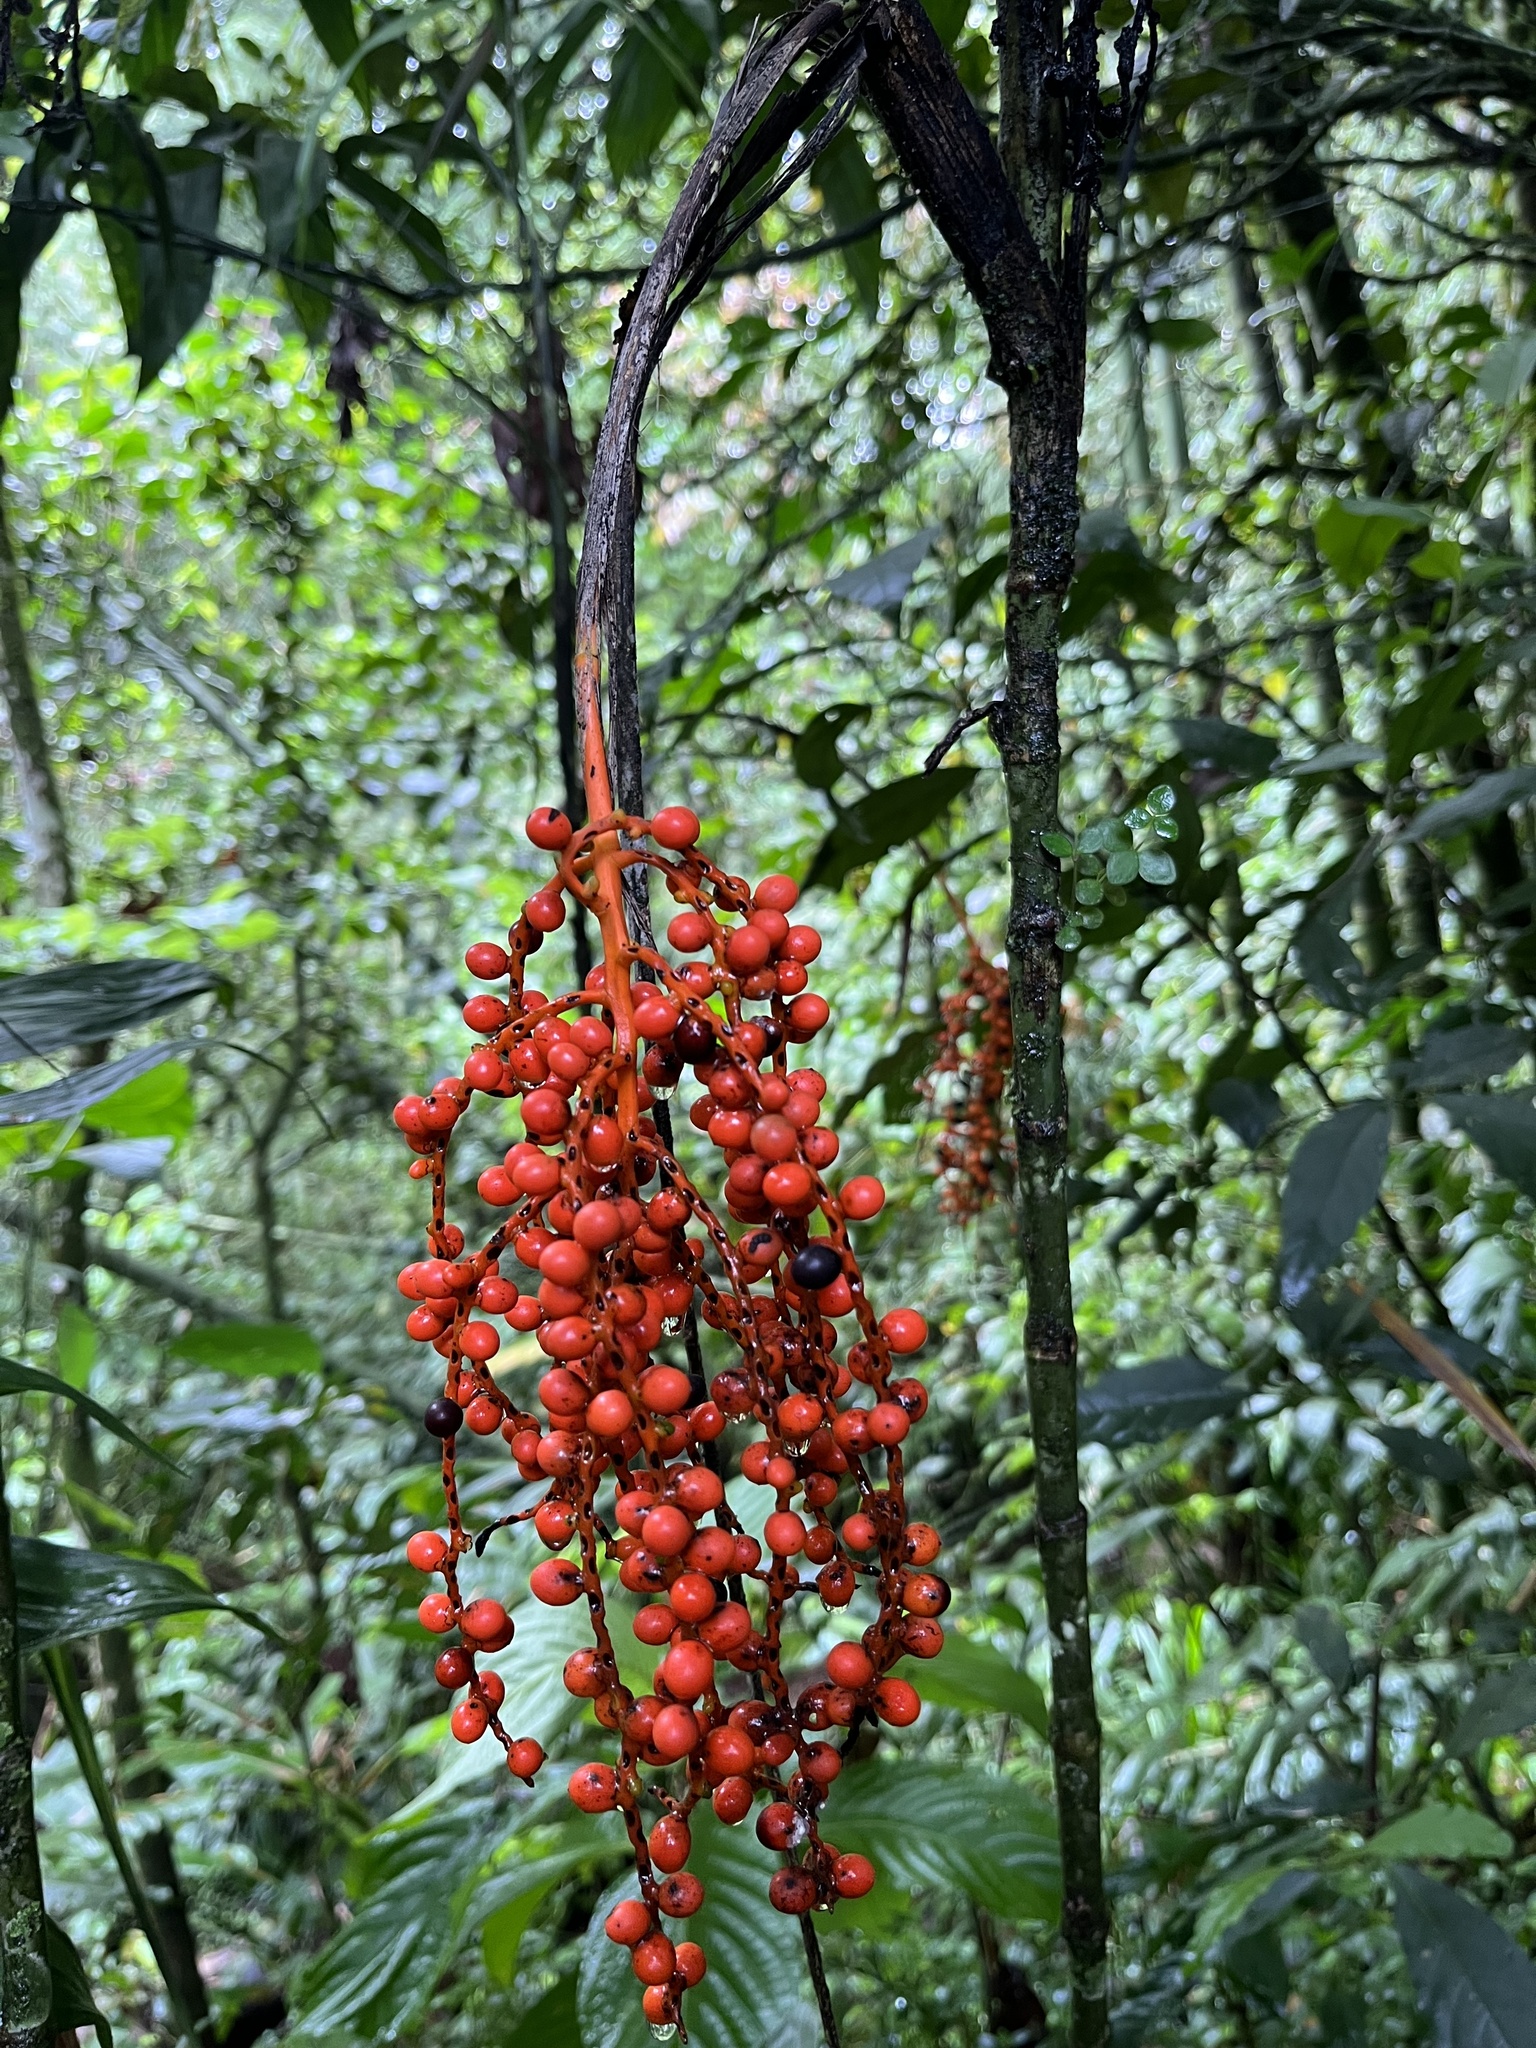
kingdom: Plantae
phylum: Tracheophyta
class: Liliopsida
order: Arecales
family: Arecaceae
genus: Chamaedorea
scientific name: Chamaedorea pinnatifrons
